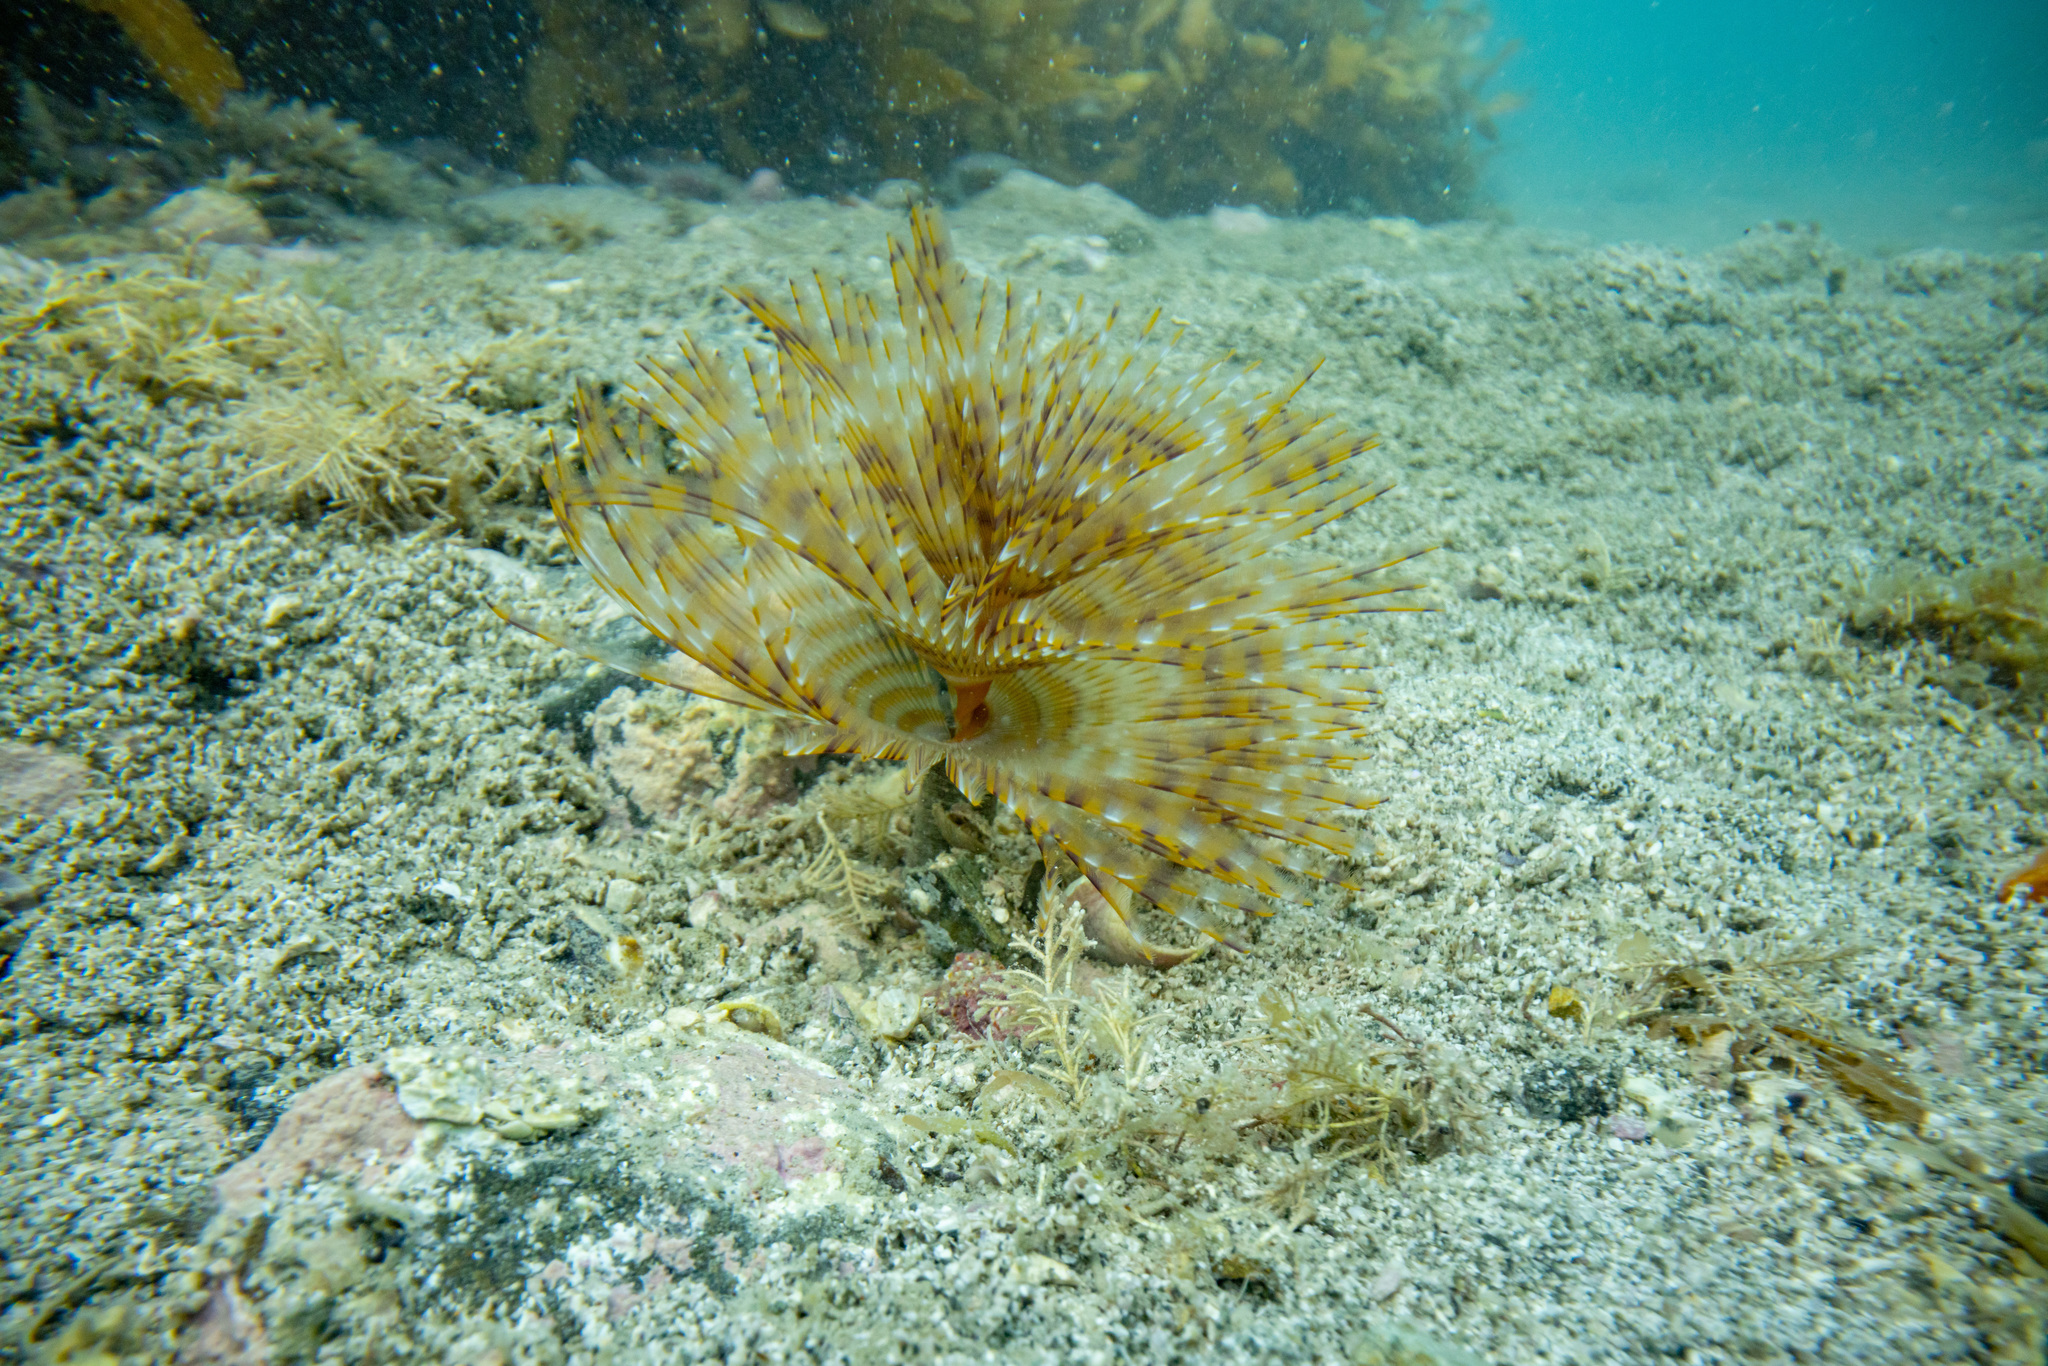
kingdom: Animalia
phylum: Annelida
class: Polychaeta
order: Sabellida
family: Sabellidae
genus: Sabella
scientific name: Sabella spallanzanii
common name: Feather duster worm
